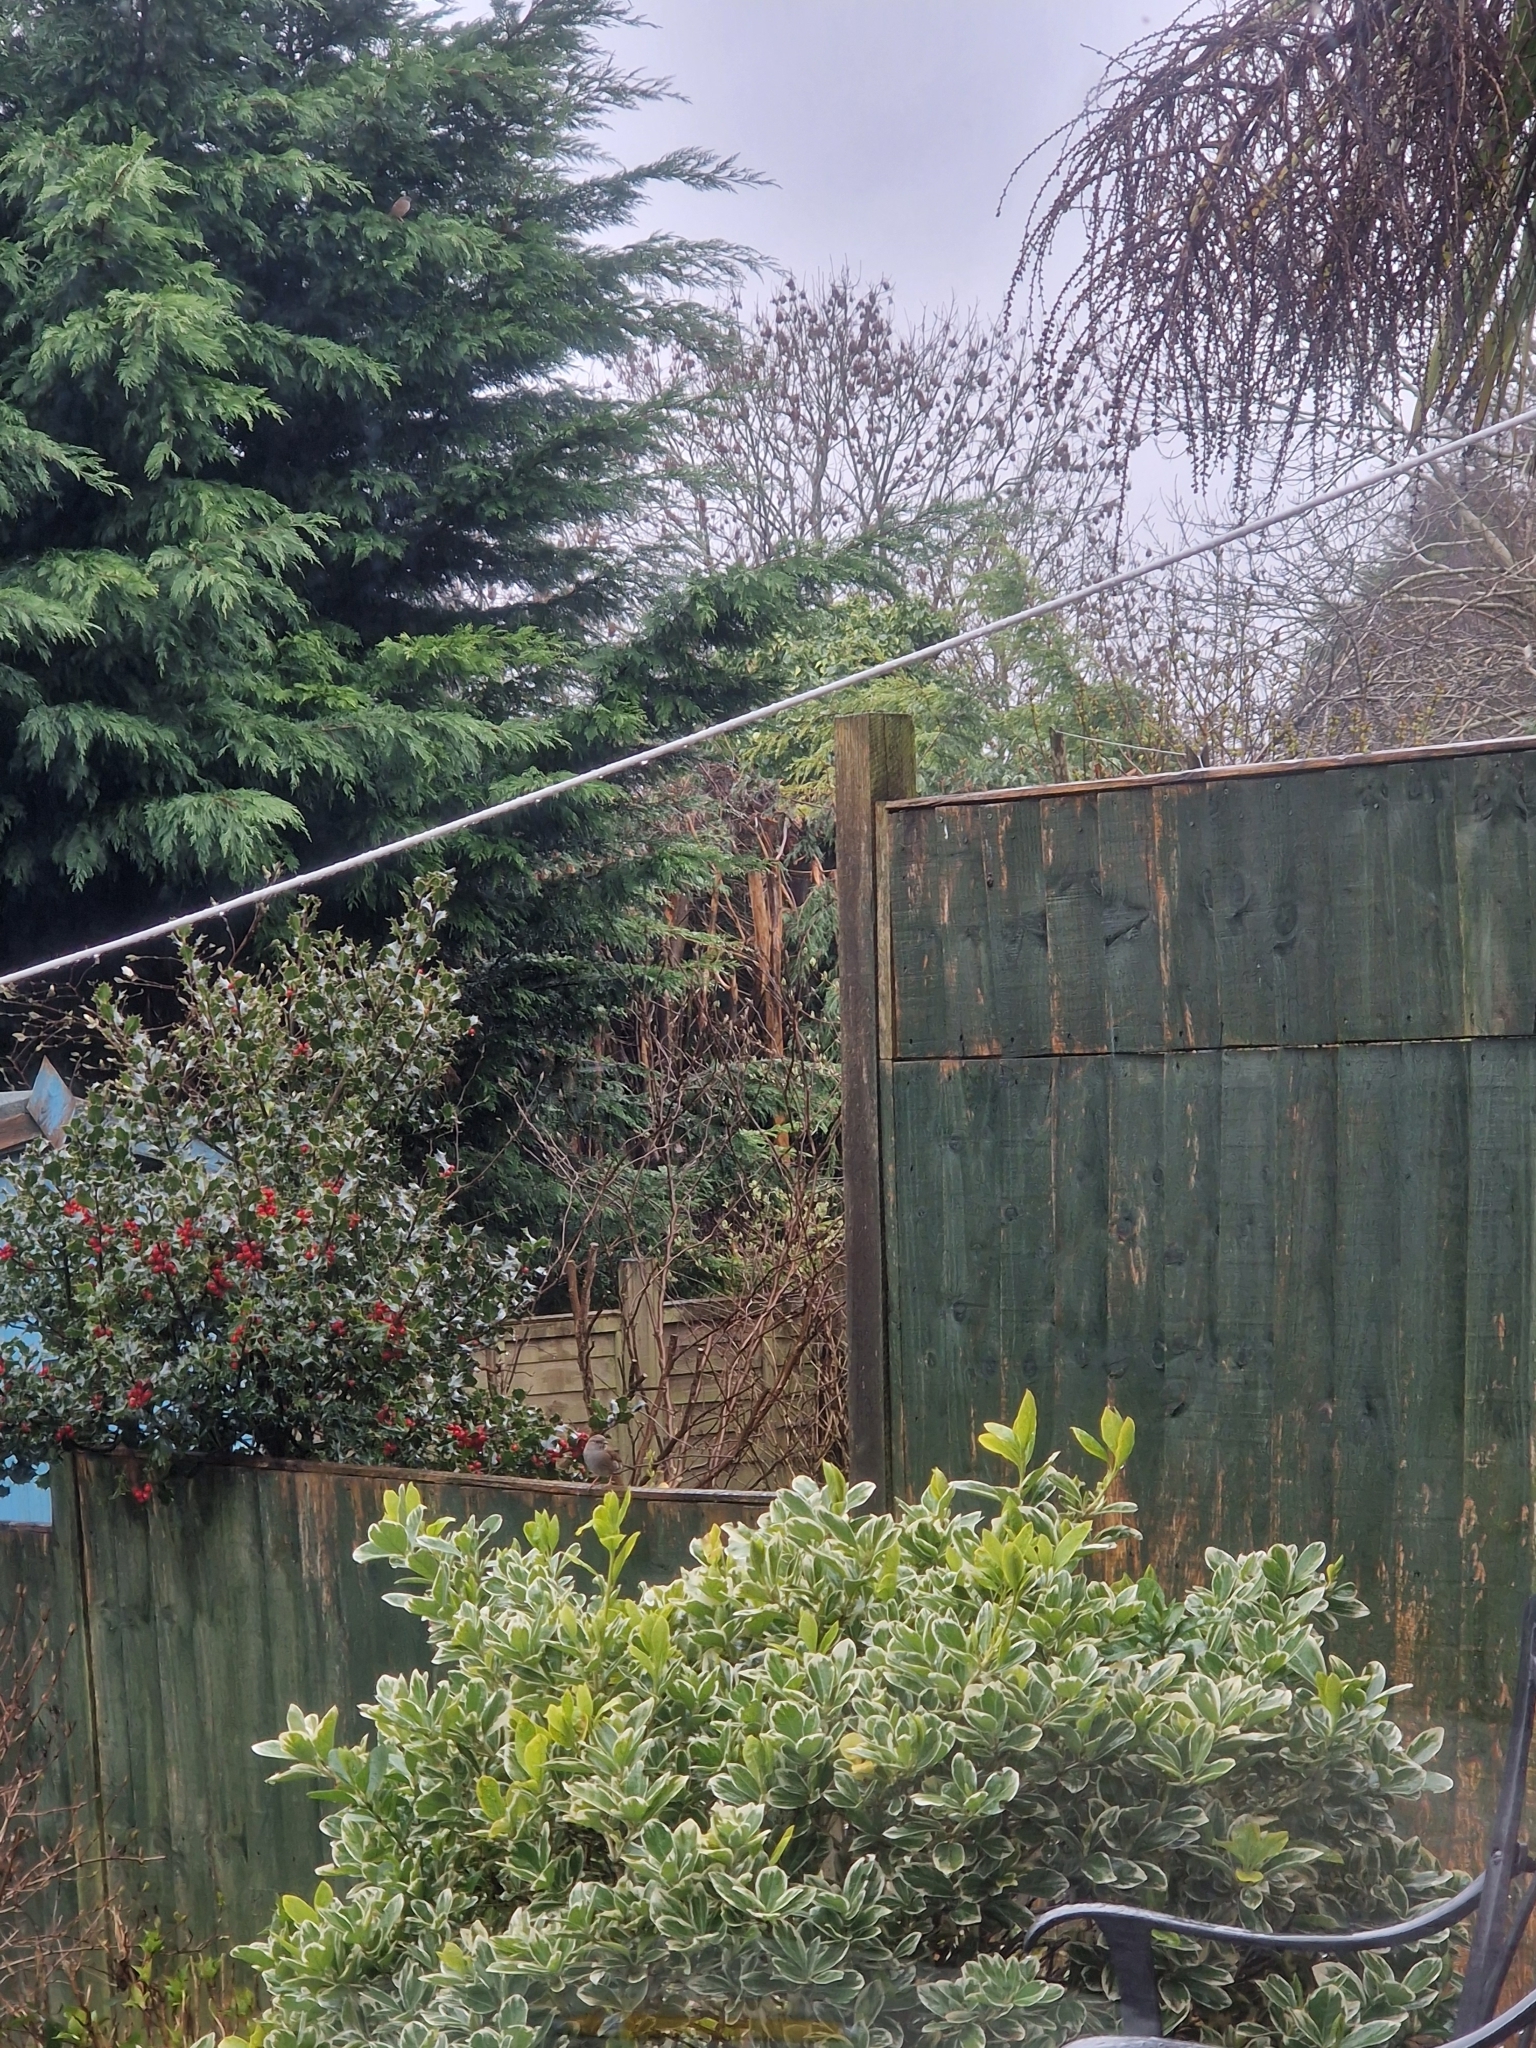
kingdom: Animalia
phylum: Chordata
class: Aves
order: Passeriformes
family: Prunellidae
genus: Prunella
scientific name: Prunella modularis
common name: Dunnock
